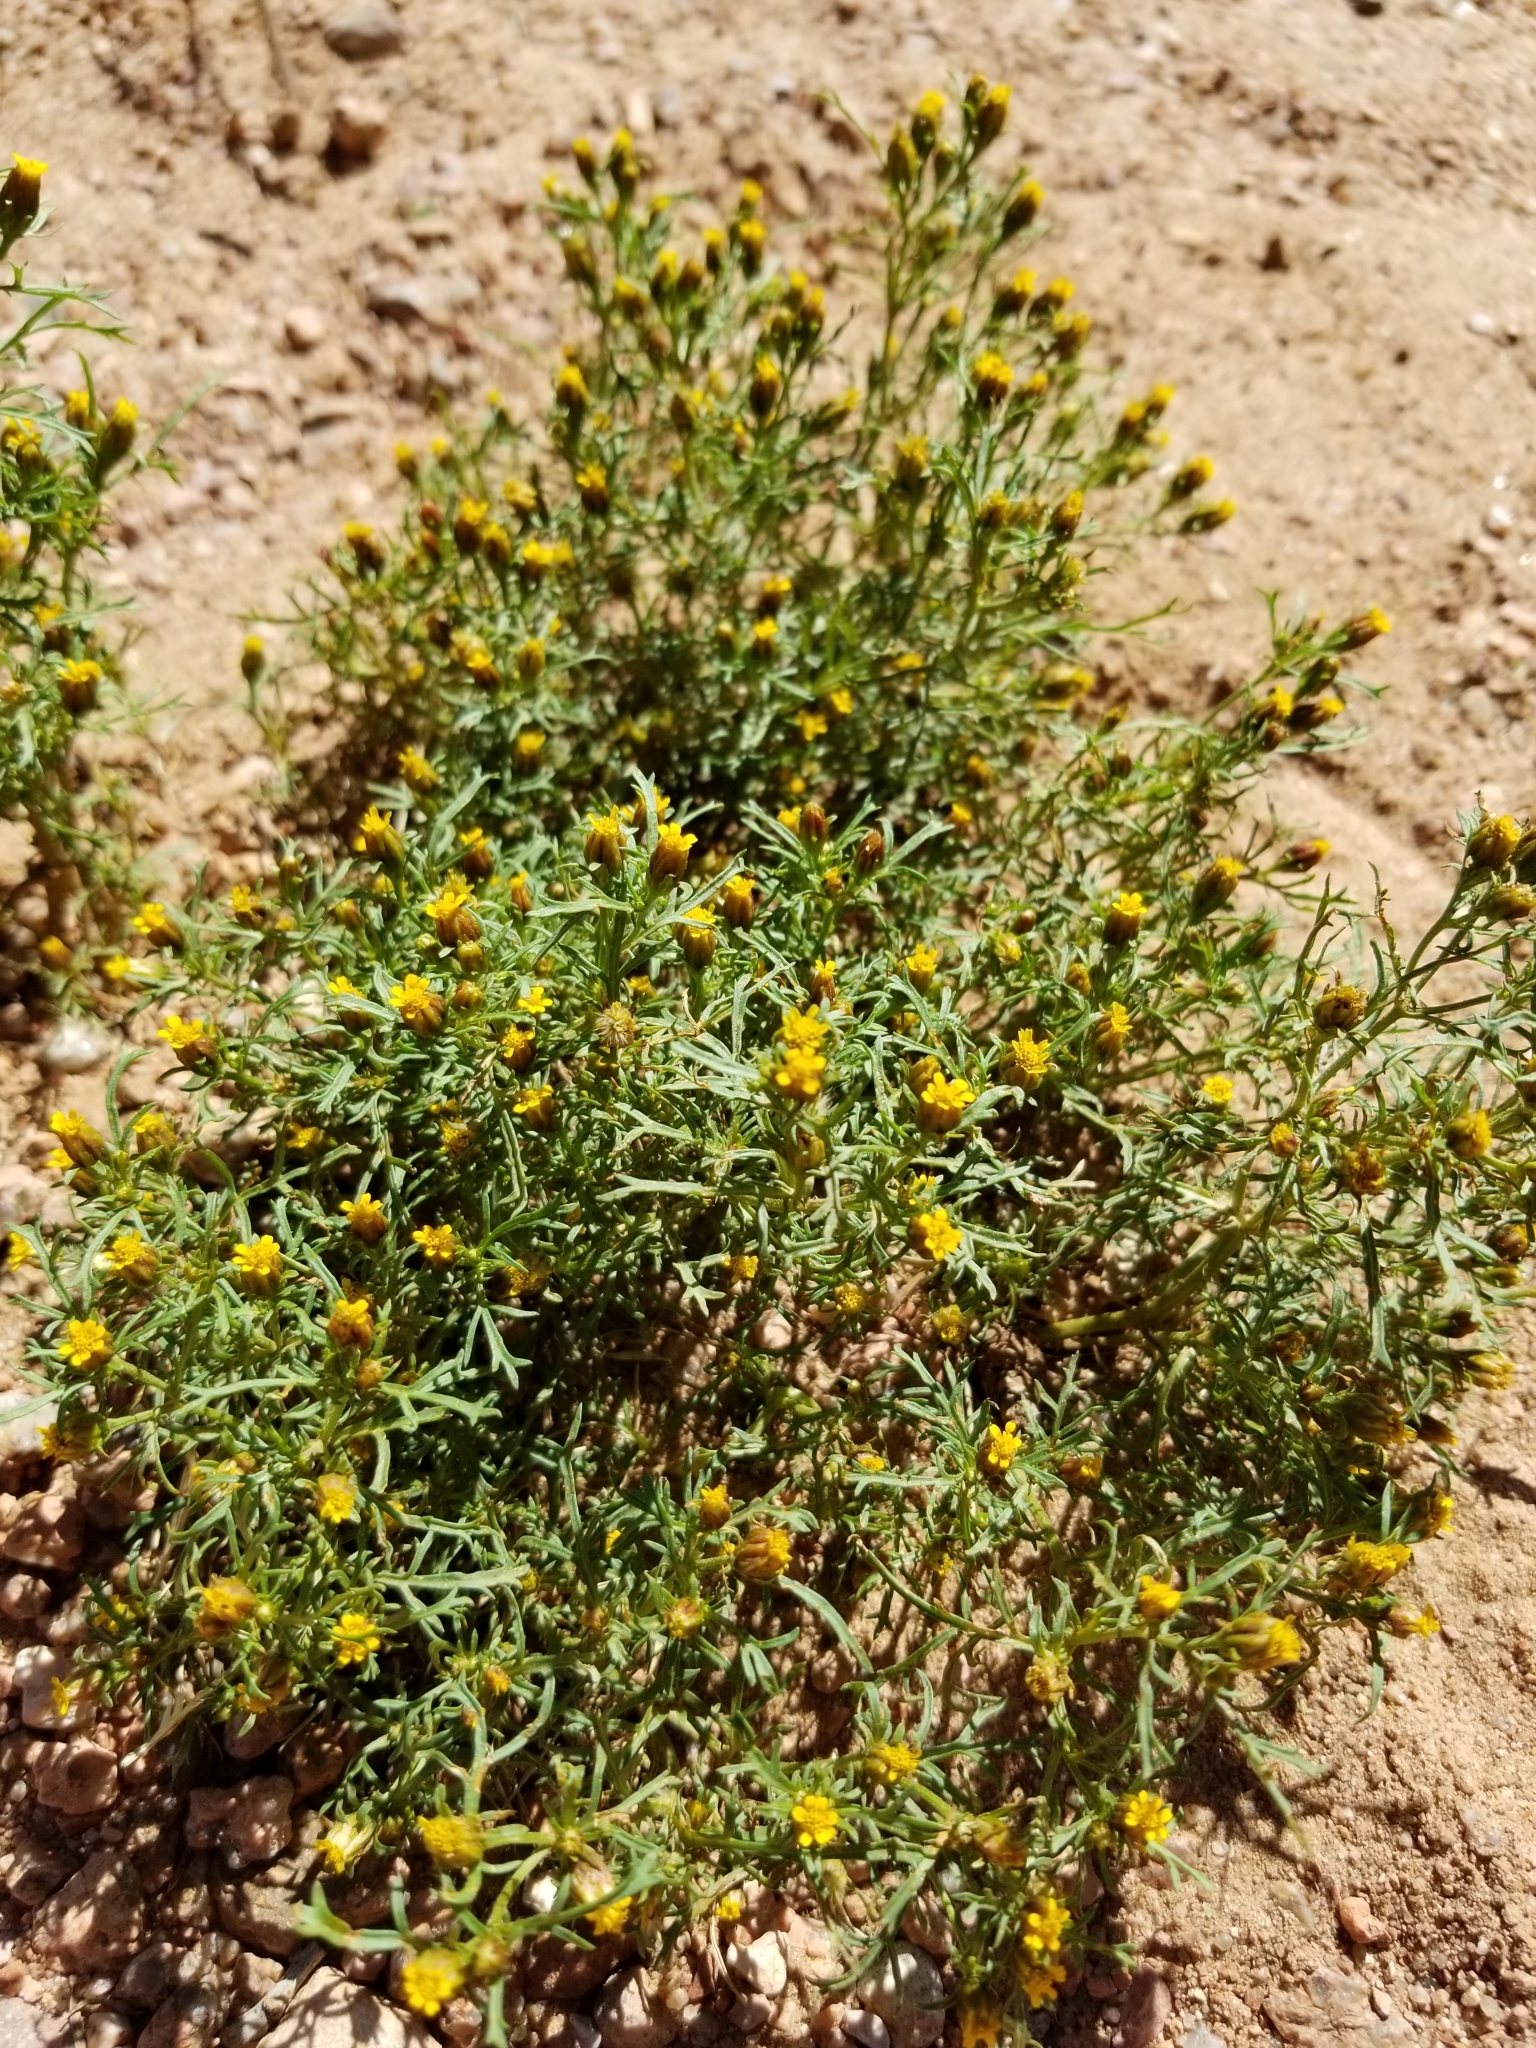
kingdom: Plantae
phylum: Tracheophyta
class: Magnoliopsida
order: Asterales
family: Asteraceae
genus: Dyssodia
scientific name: Dyssodia papposa
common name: Dogweed
